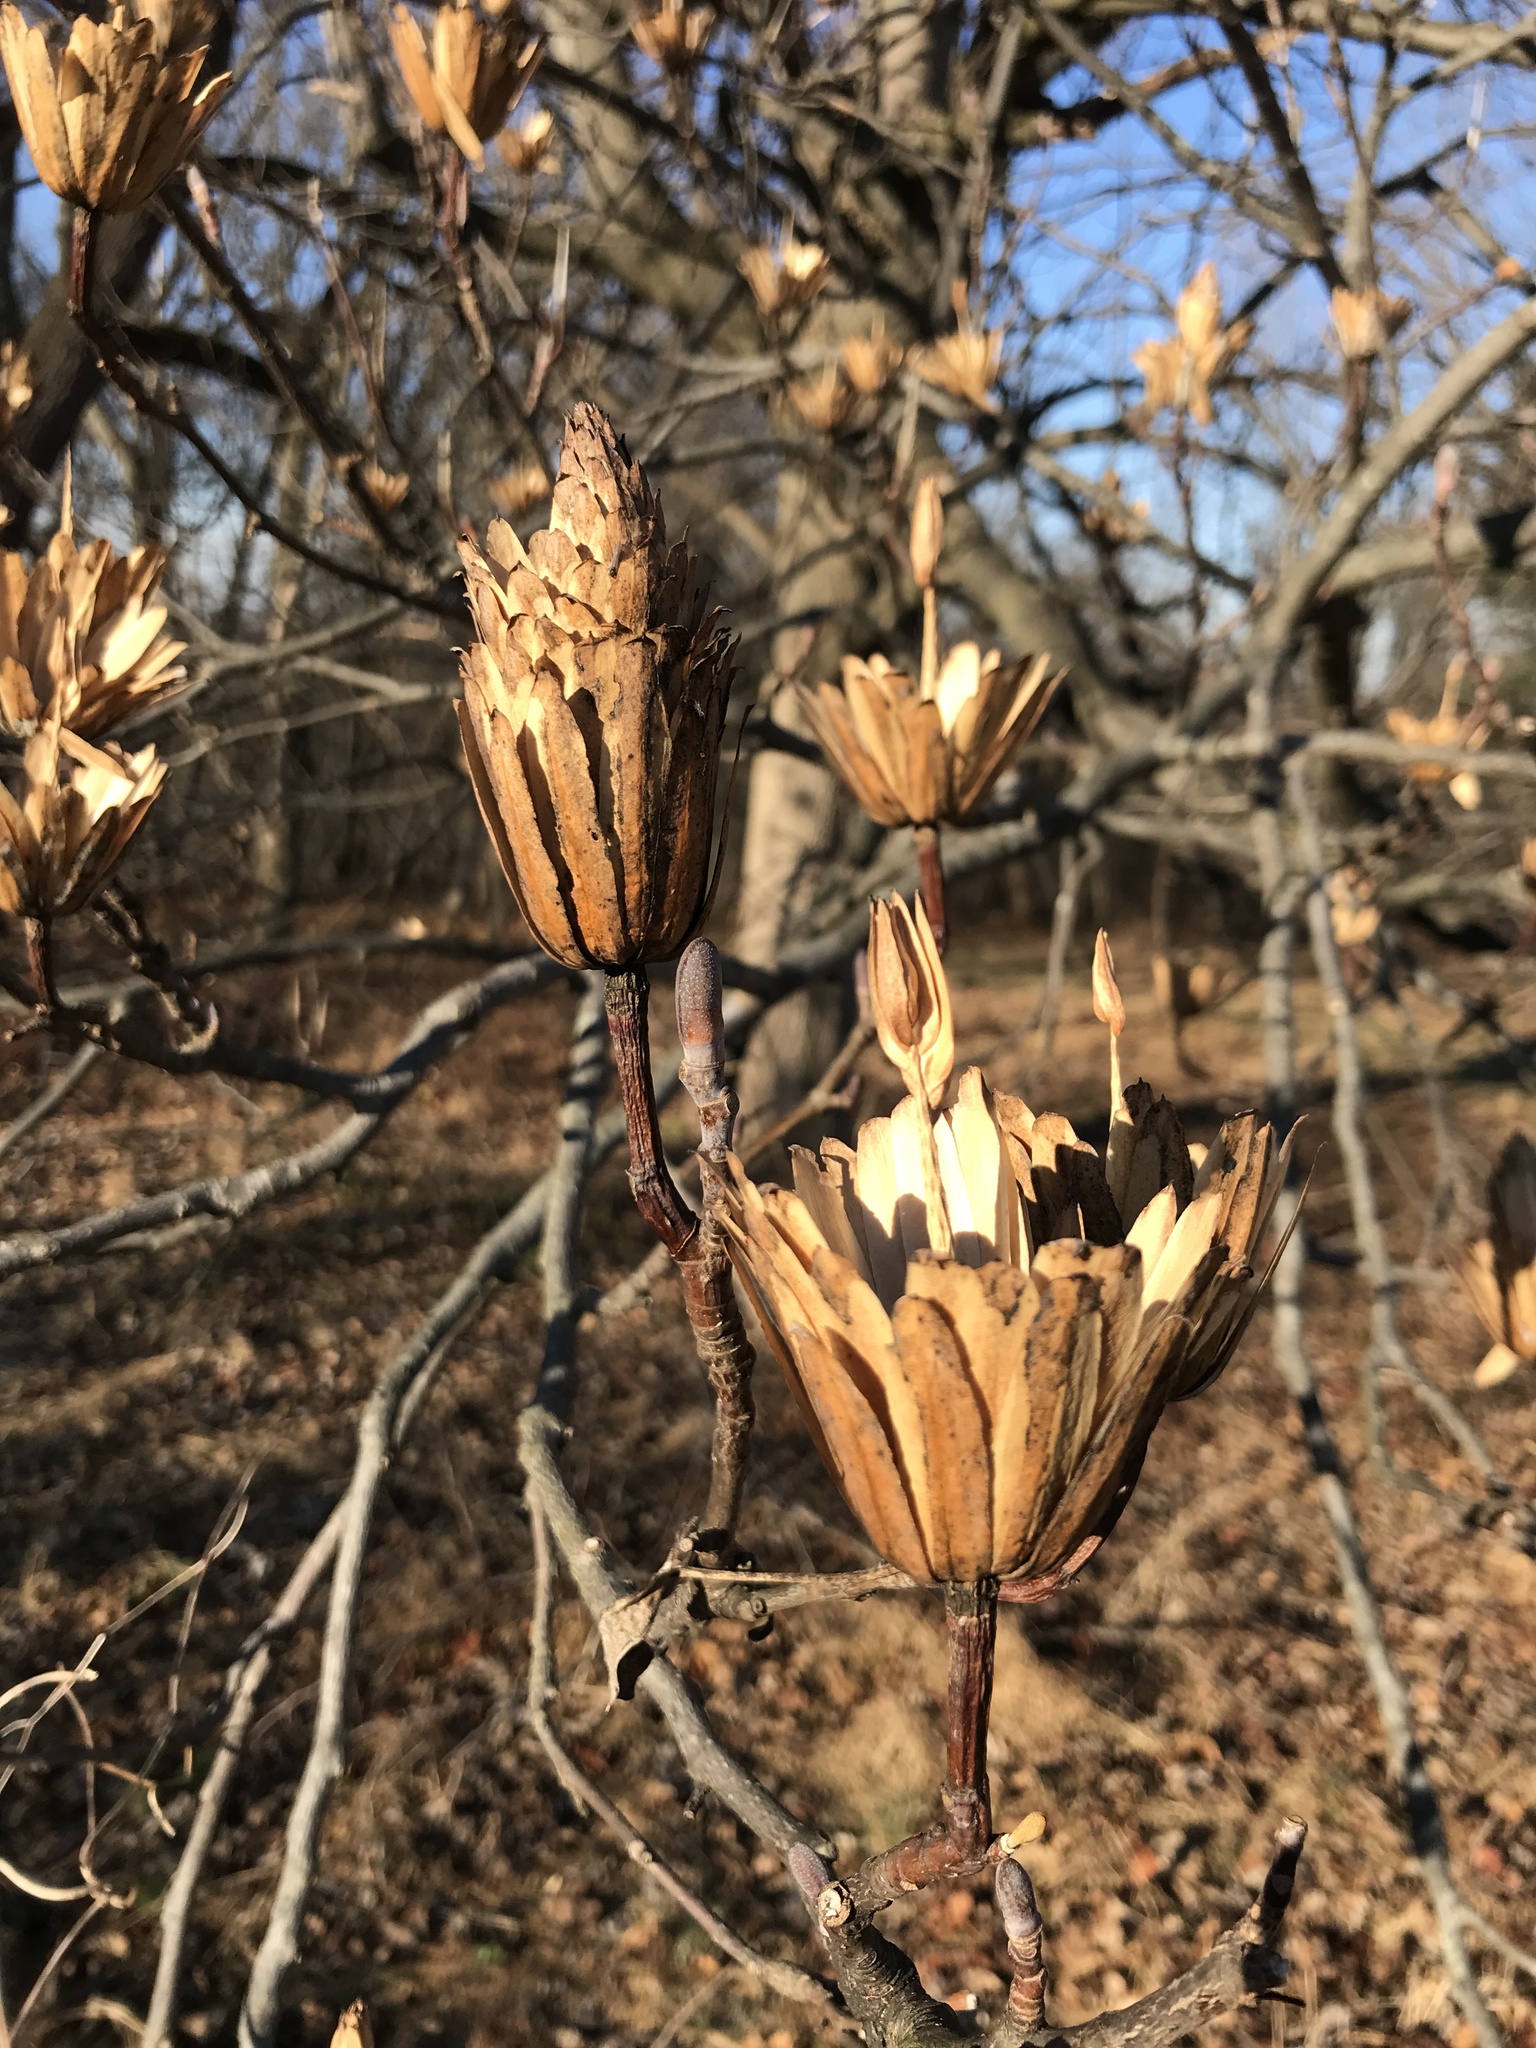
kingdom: Plantae
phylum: Tracheophyta
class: Magnoliopsida
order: Magnoliales
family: Magnoliaceae
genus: Liriodendron
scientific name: Liriodendron tulipifera
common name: Tulip tree
